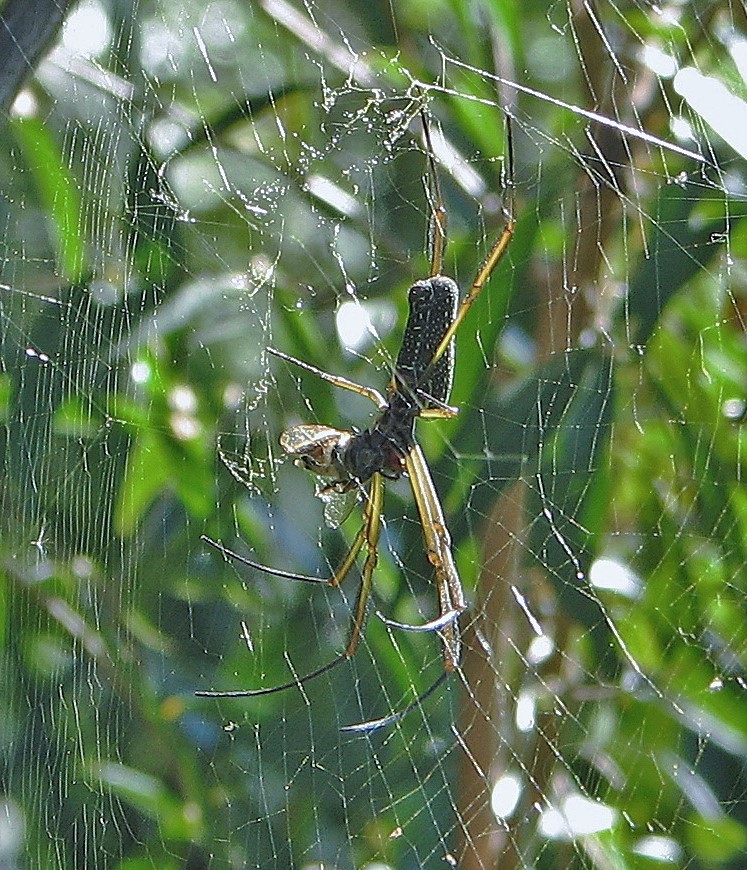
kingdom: Animalia
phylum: Arthropoda
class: Arachnida
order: Araneae
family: Araneidae
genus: Trichonephila
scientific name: Trichonephila clavipes
